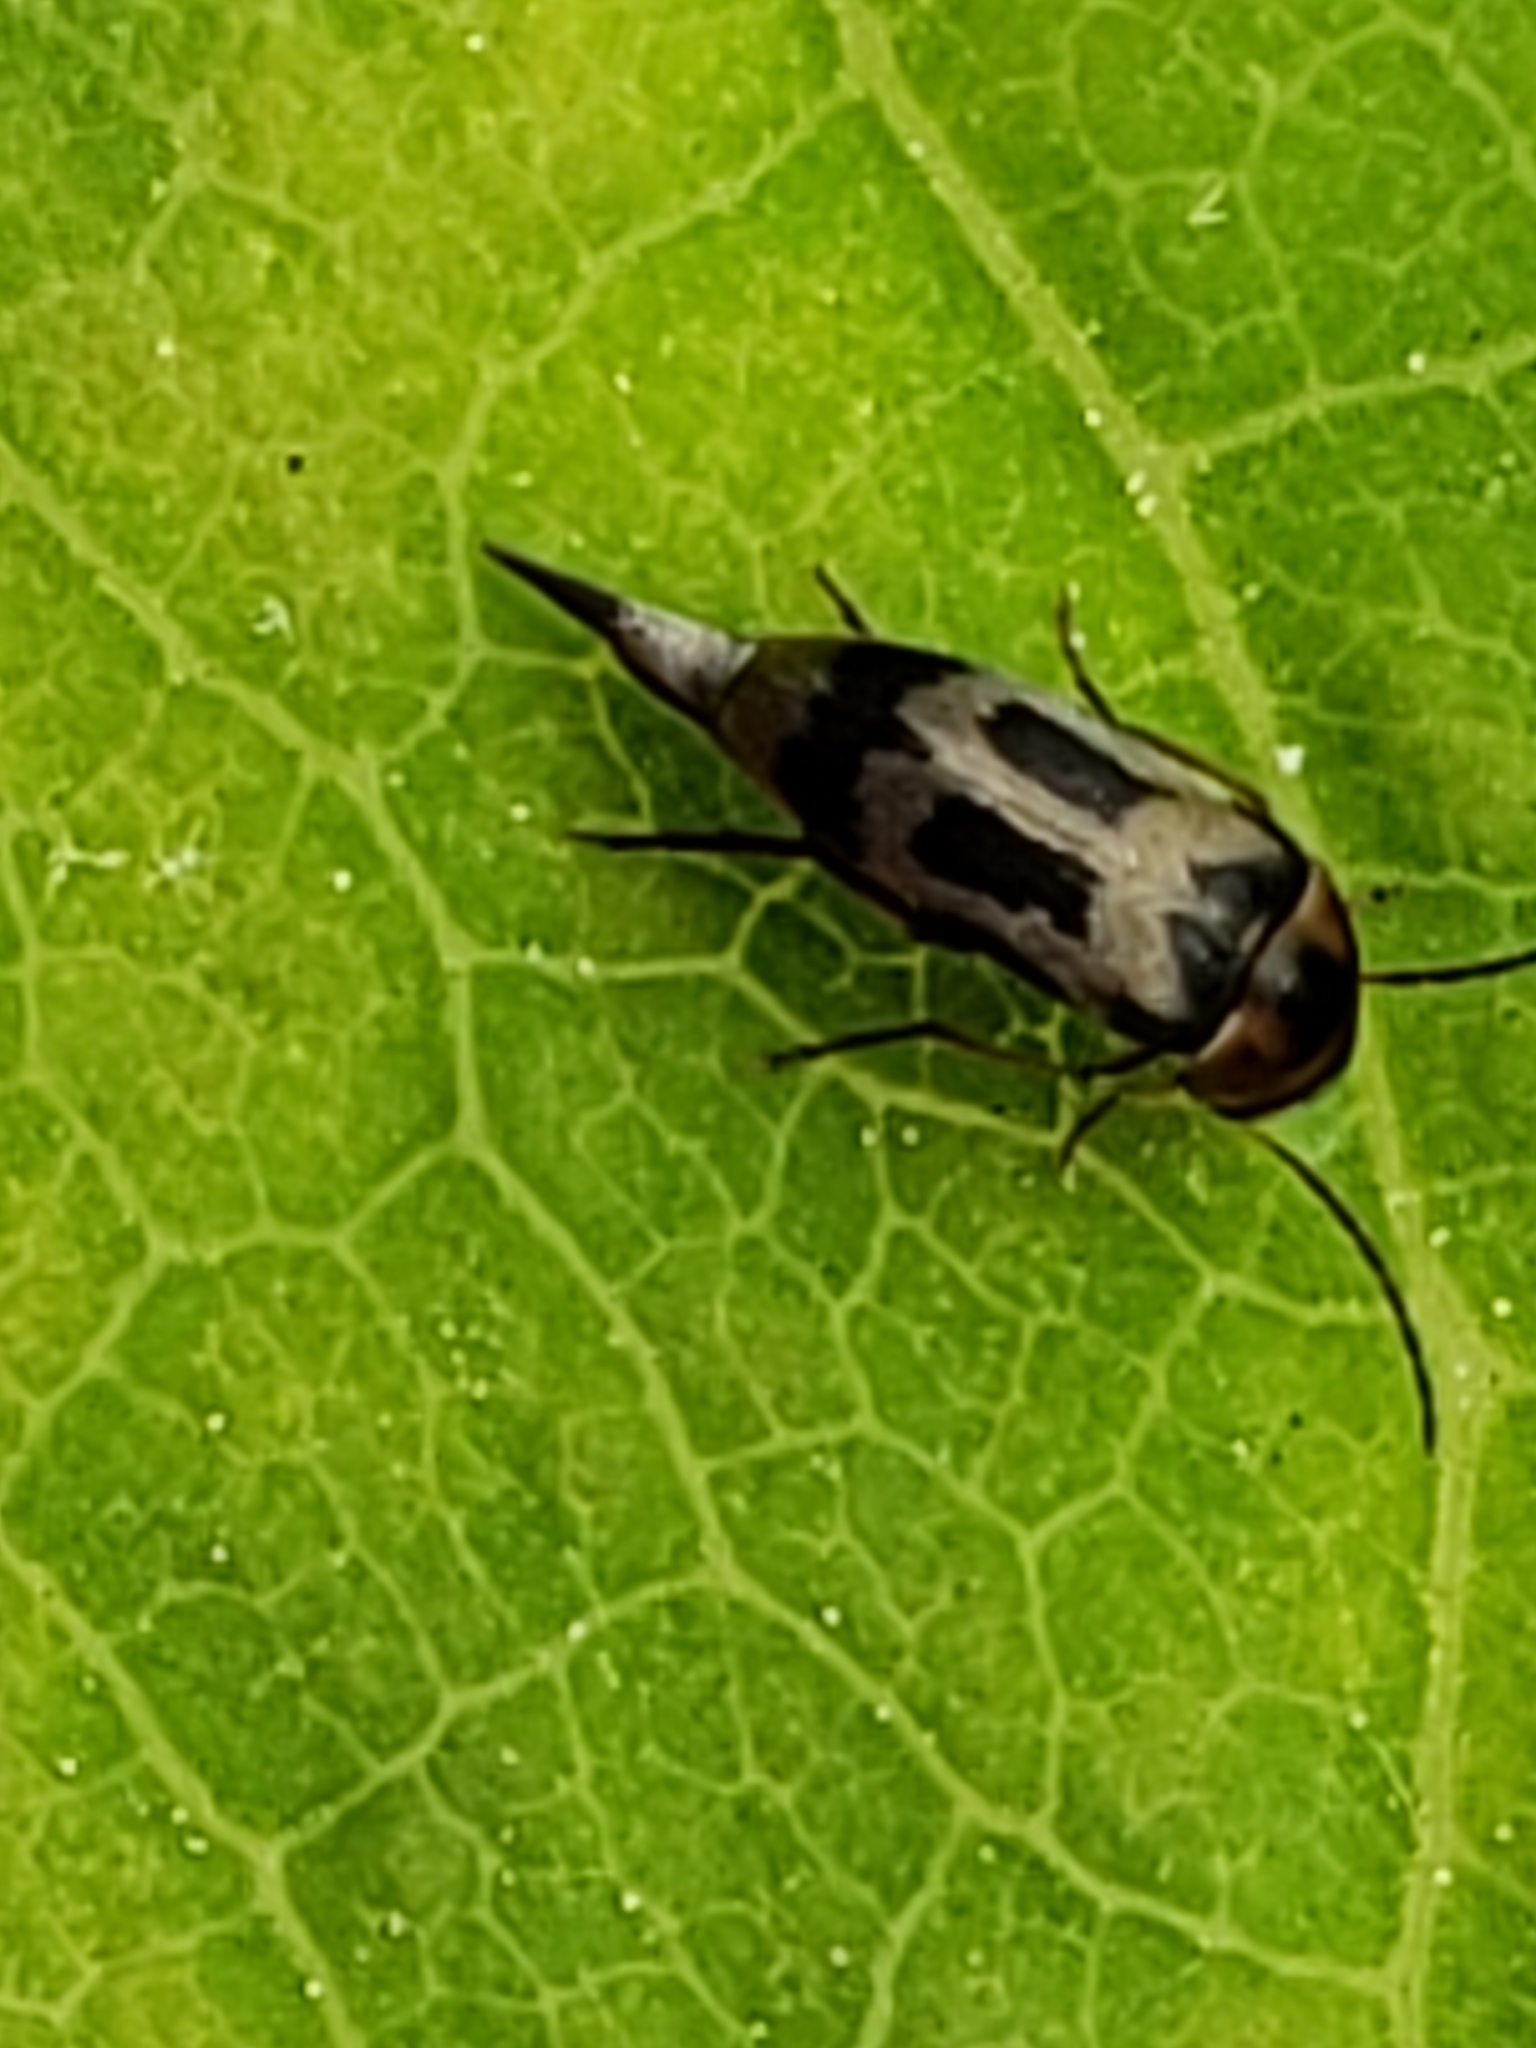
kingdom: Animalia
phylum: Arthropoda
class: Insecta
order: Coleoptera
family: Mordellidae
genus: Falsomordellistena
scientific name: Falsomordellistena hebraica
